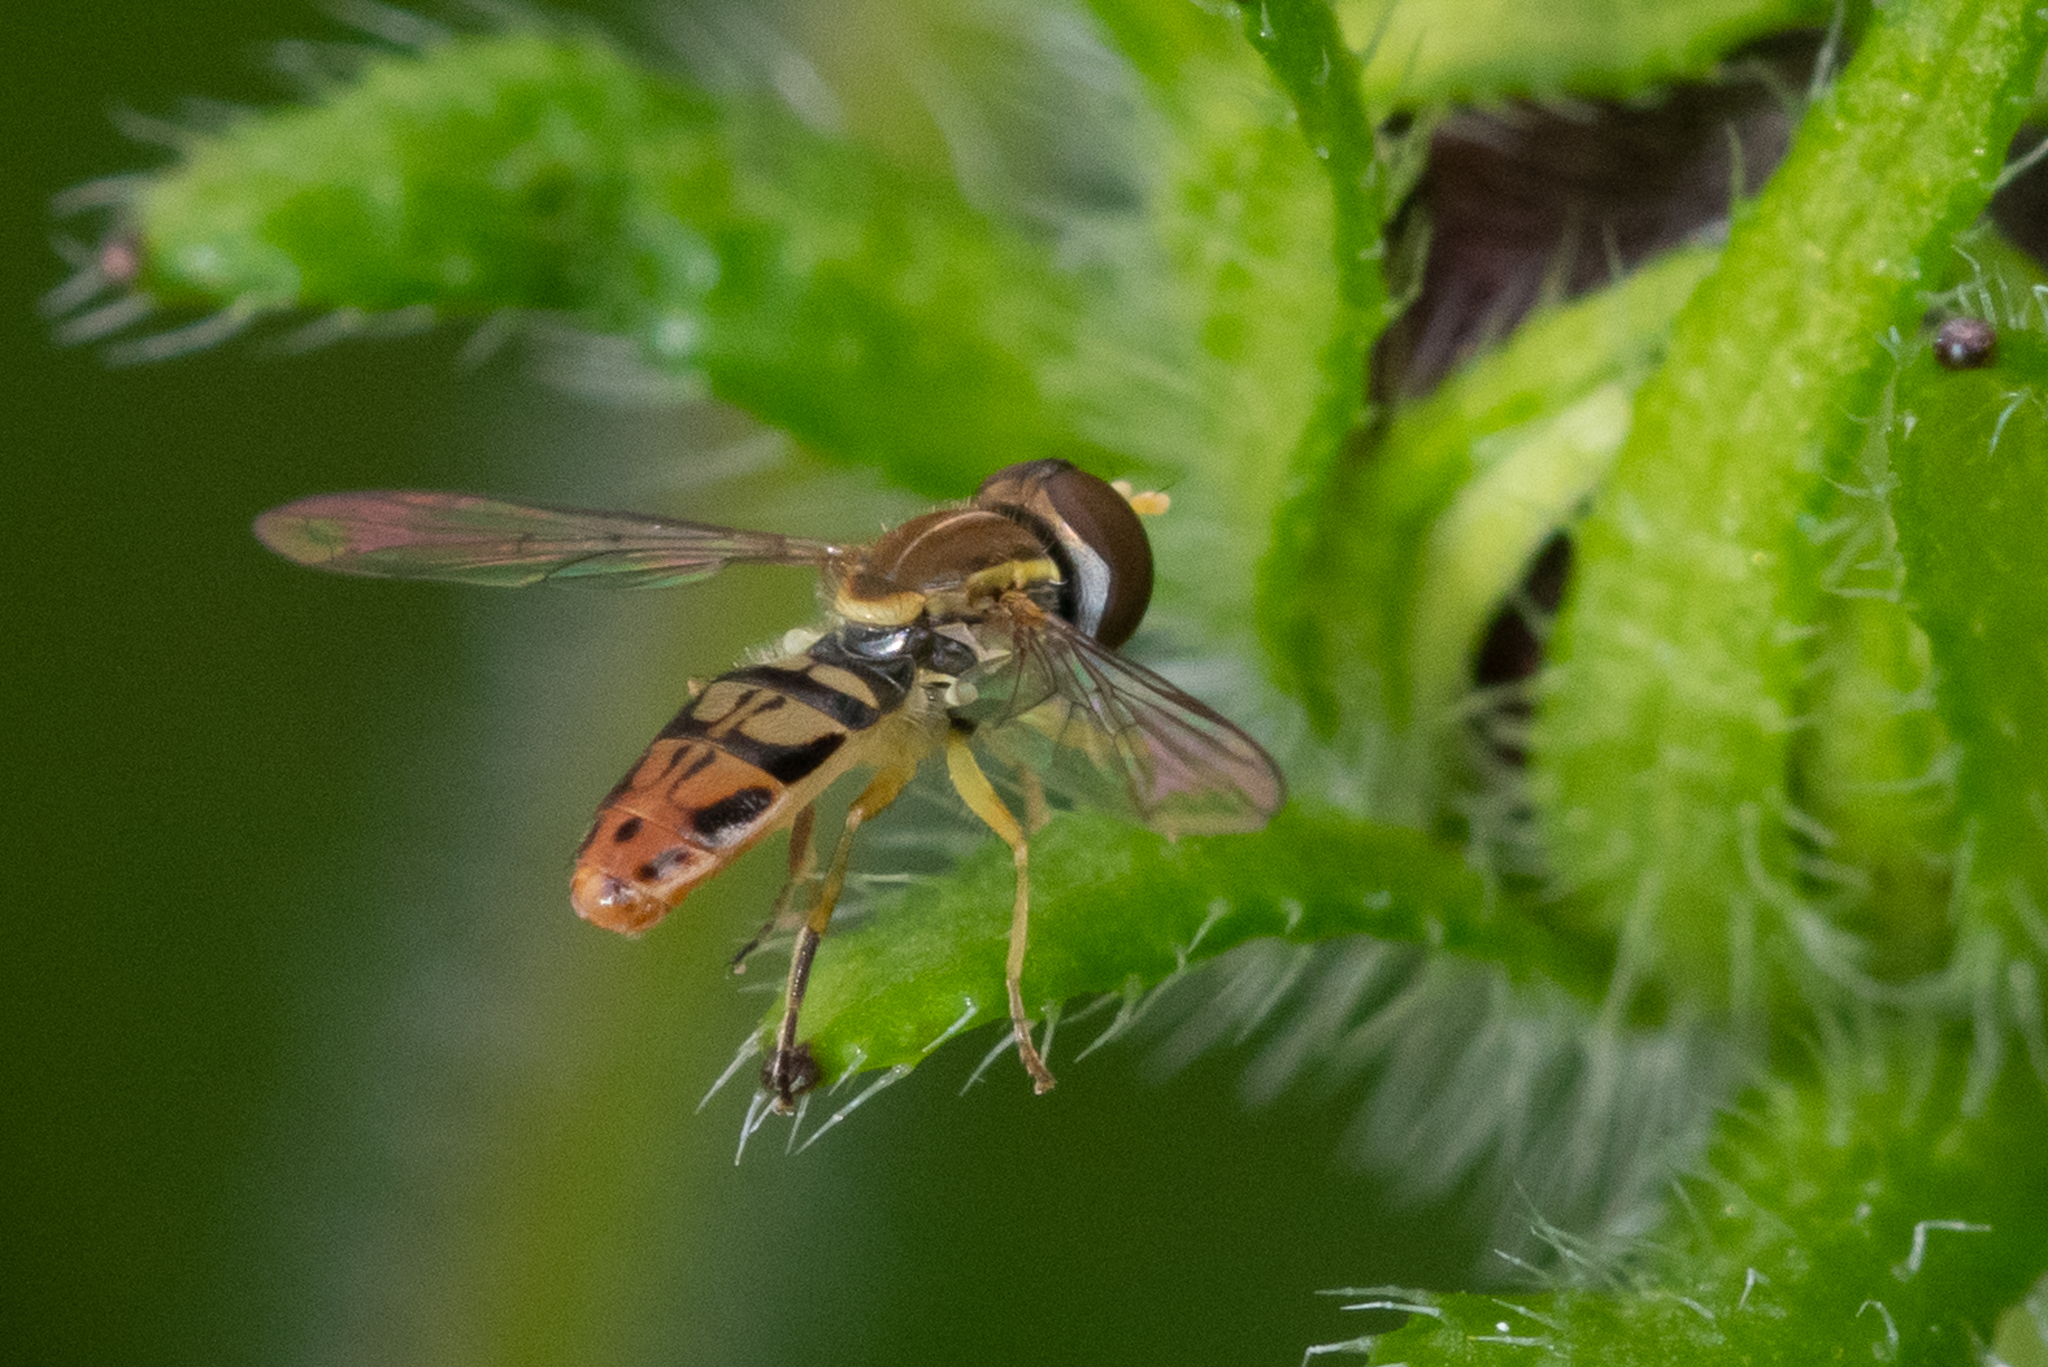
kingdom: Animalia
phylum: Arthropoda
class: Insecta
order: Diptera
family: Syrphidae
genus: Toxomerus
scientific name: Toxomerus marginatus
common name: Syrphid fly
